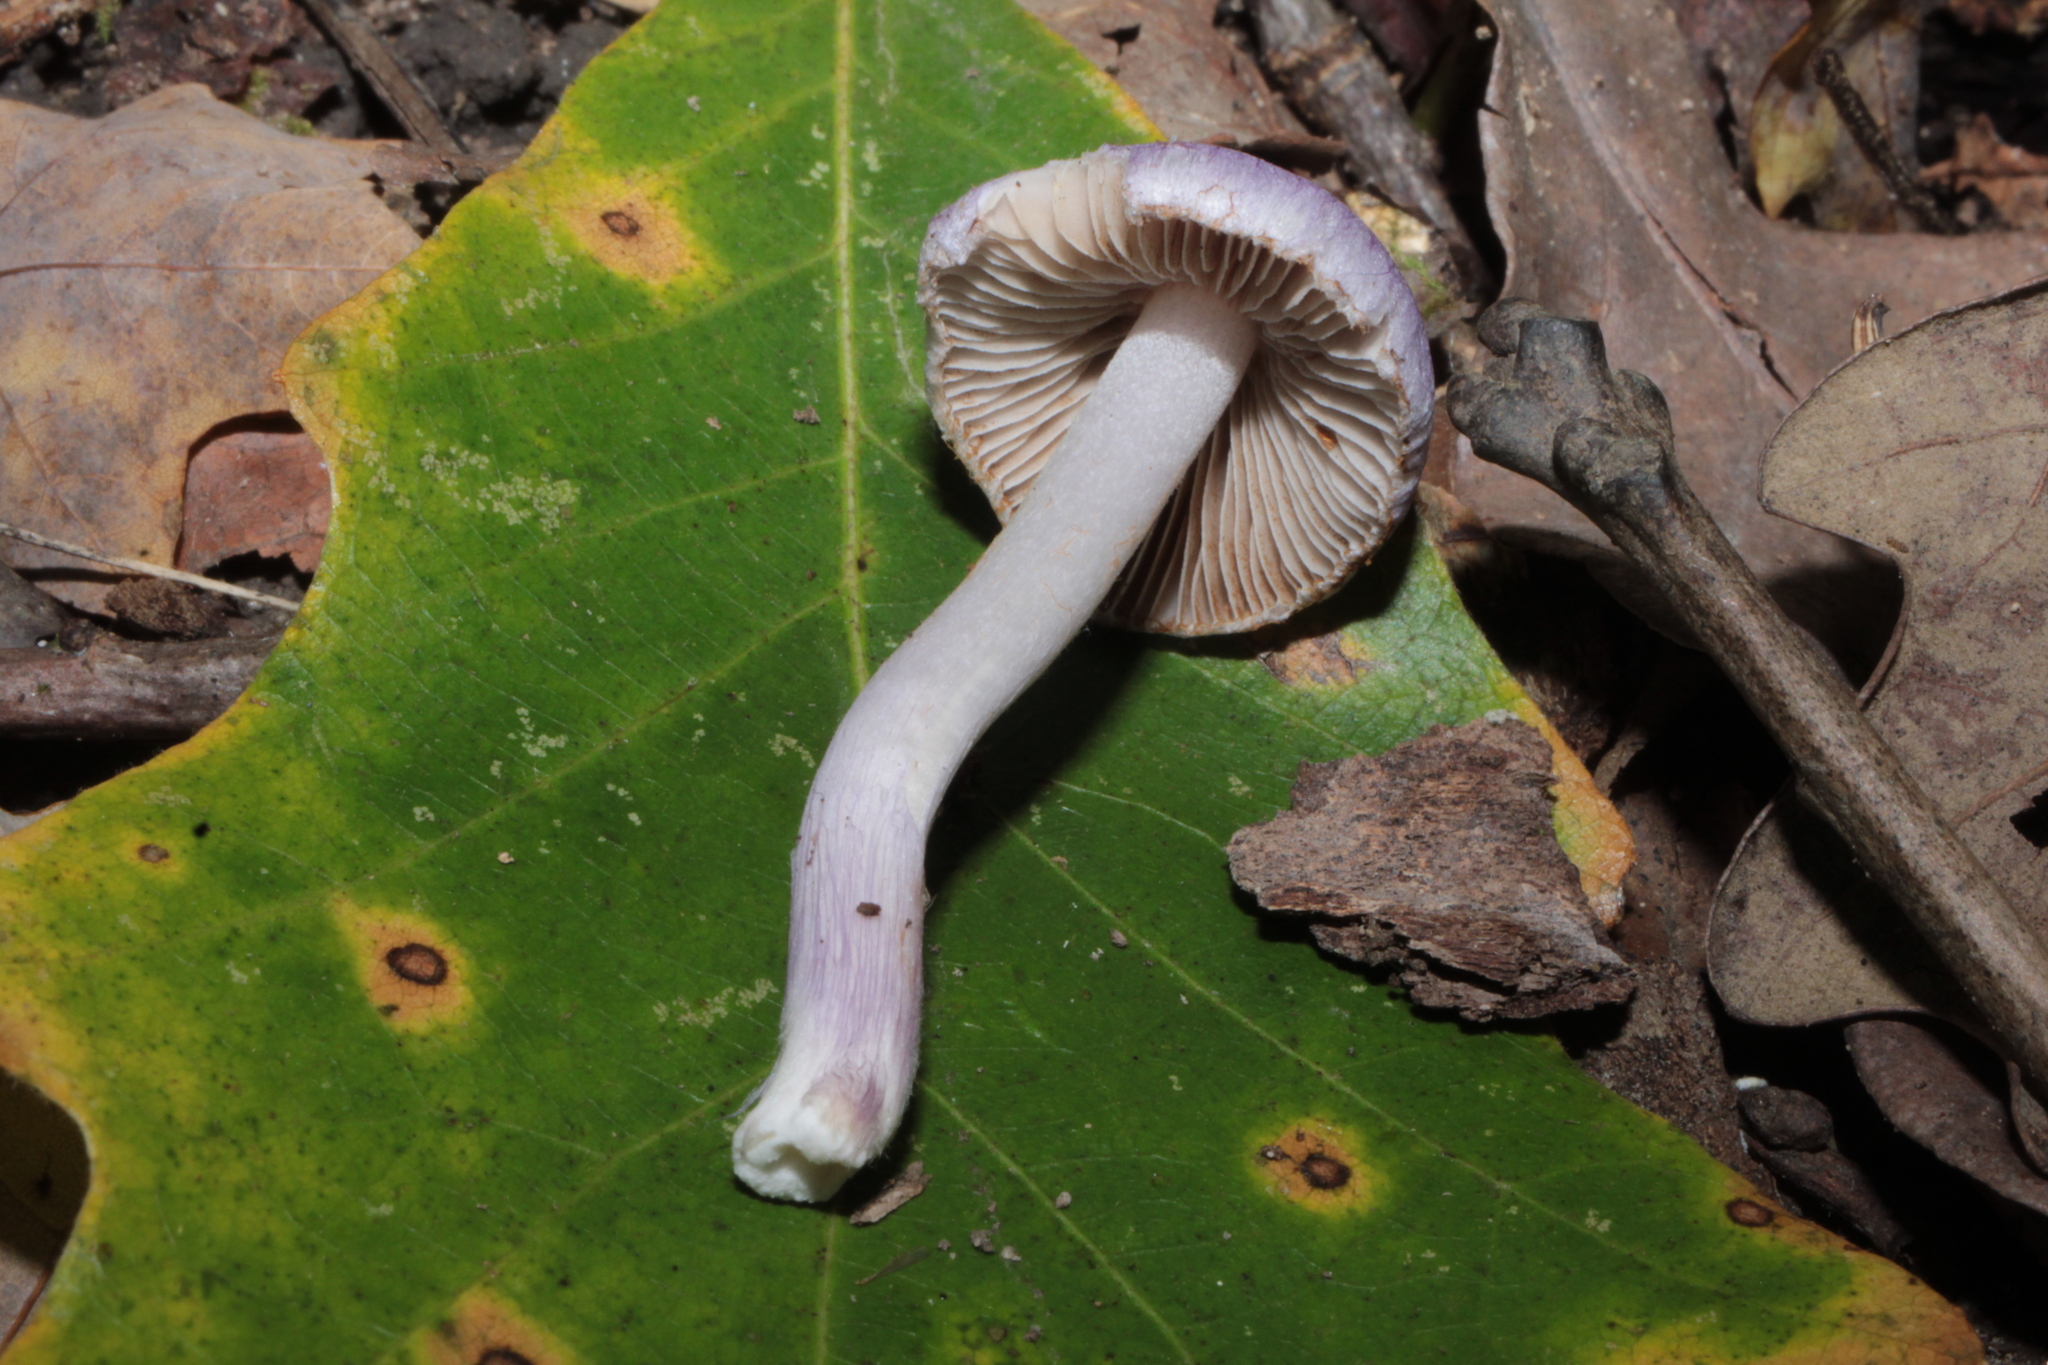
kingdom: Fungi
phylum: Basidiomycota
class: Agaricomycetes
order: Agaricales
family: Inocybaceae
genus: Inocybe
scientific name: Inocybe geophylla
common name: White fibrecap
